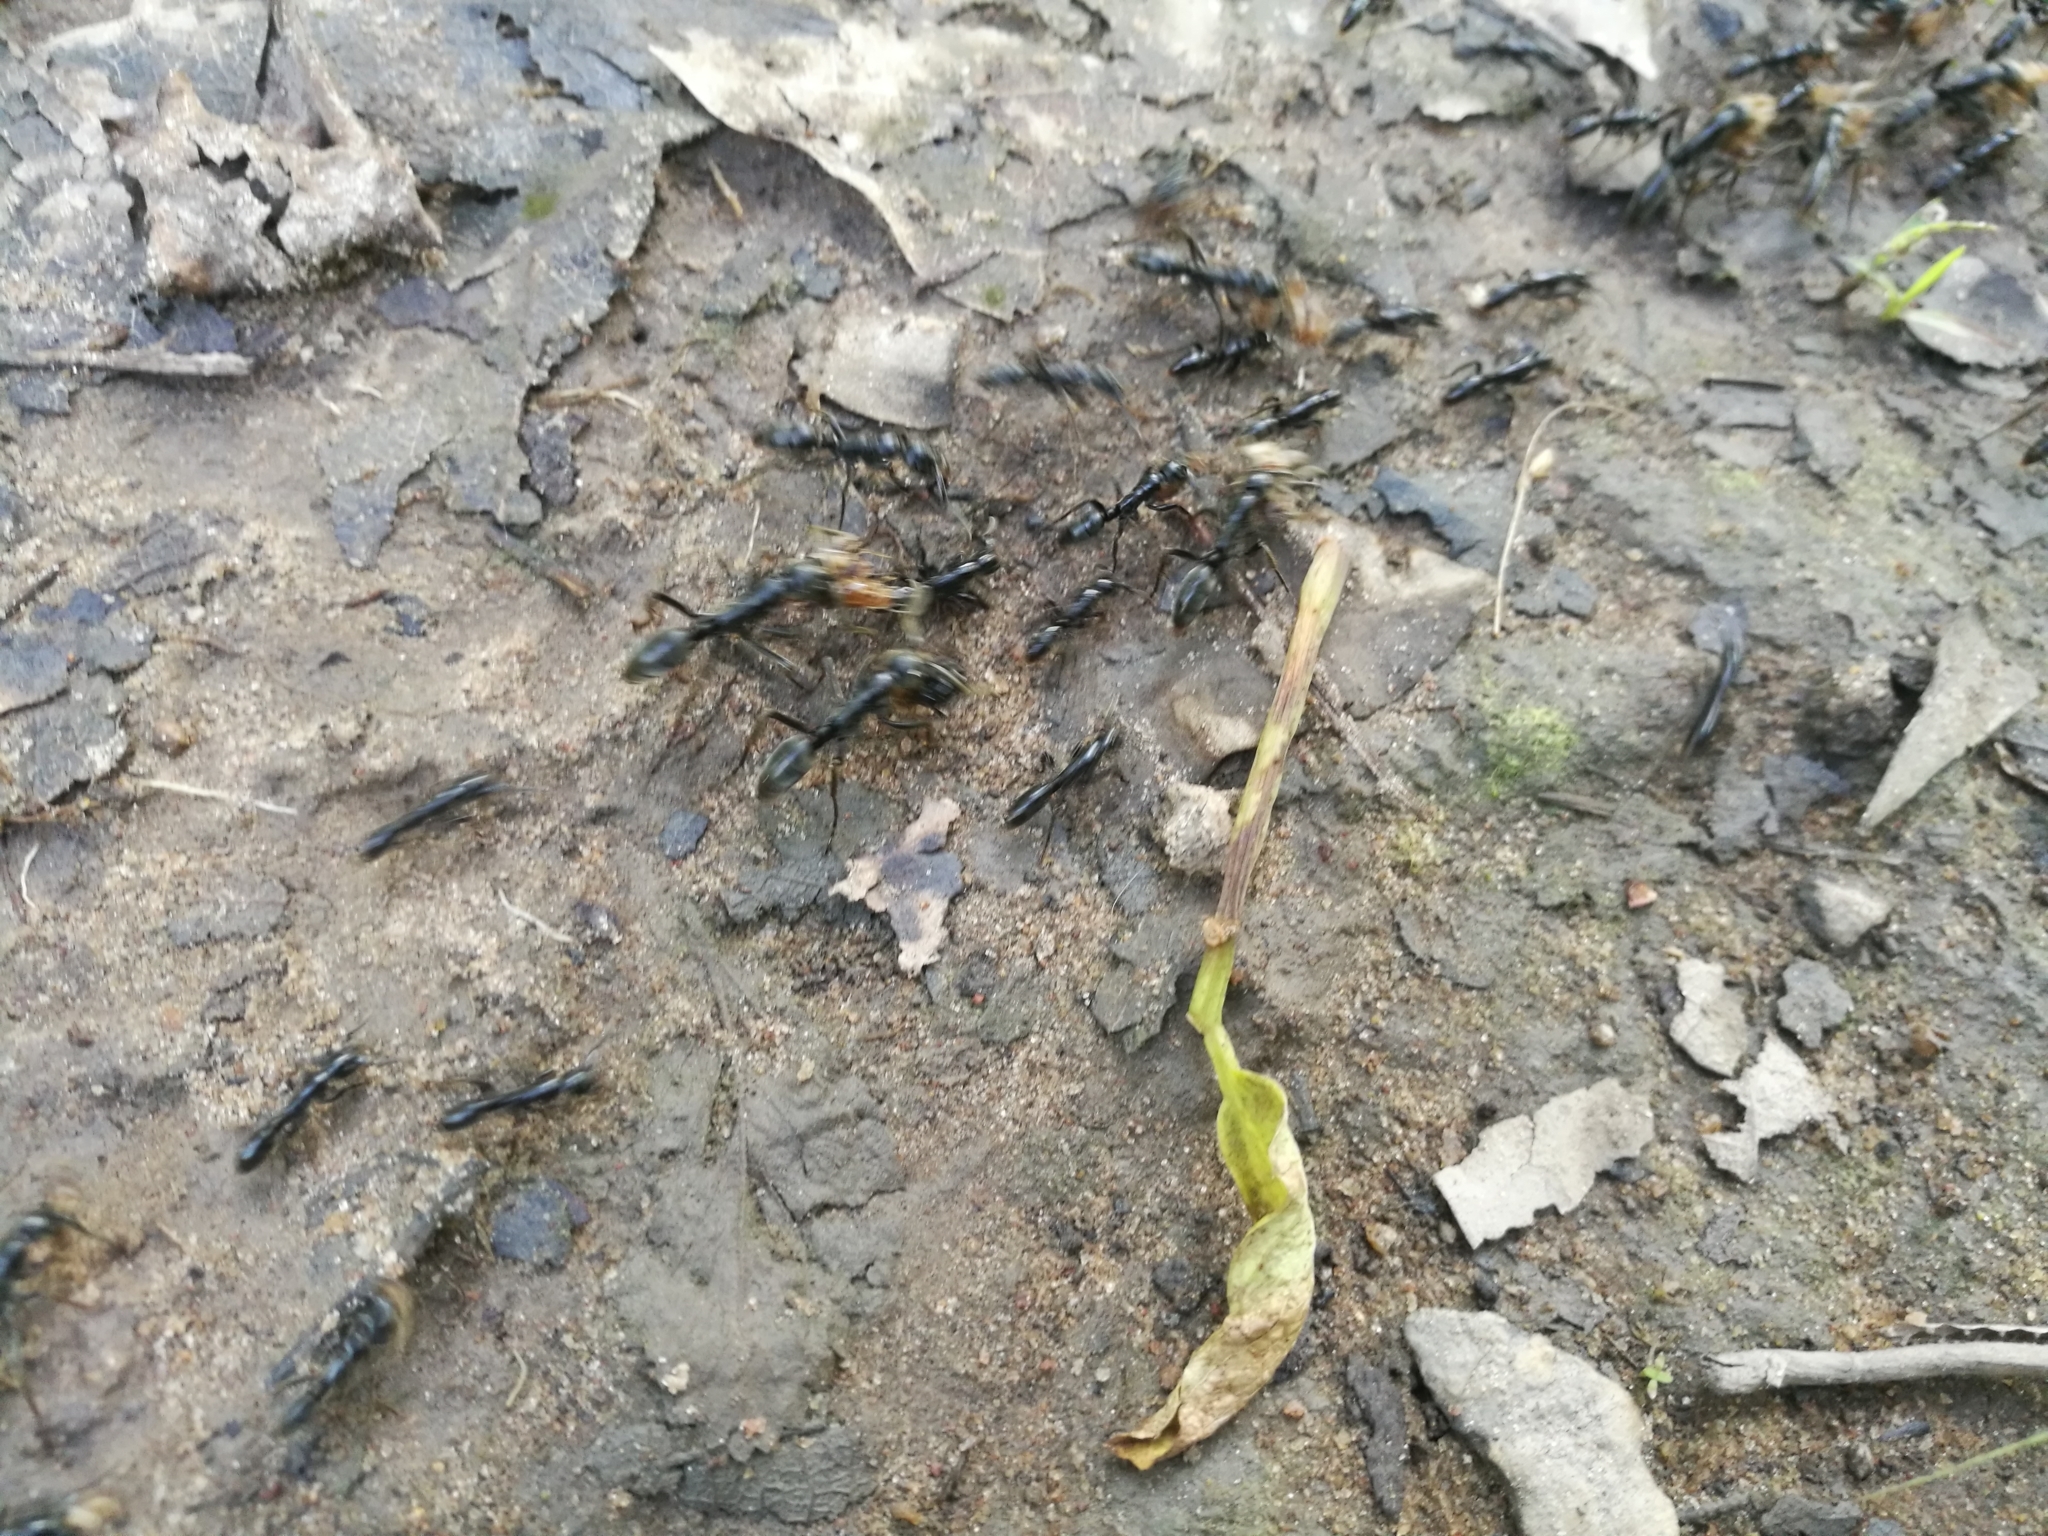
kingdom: Animalia
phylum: Arthropoda
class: Insecta
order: Hymenoptera
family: Formicidae
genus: Megaponera
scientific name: Megaponera analis
